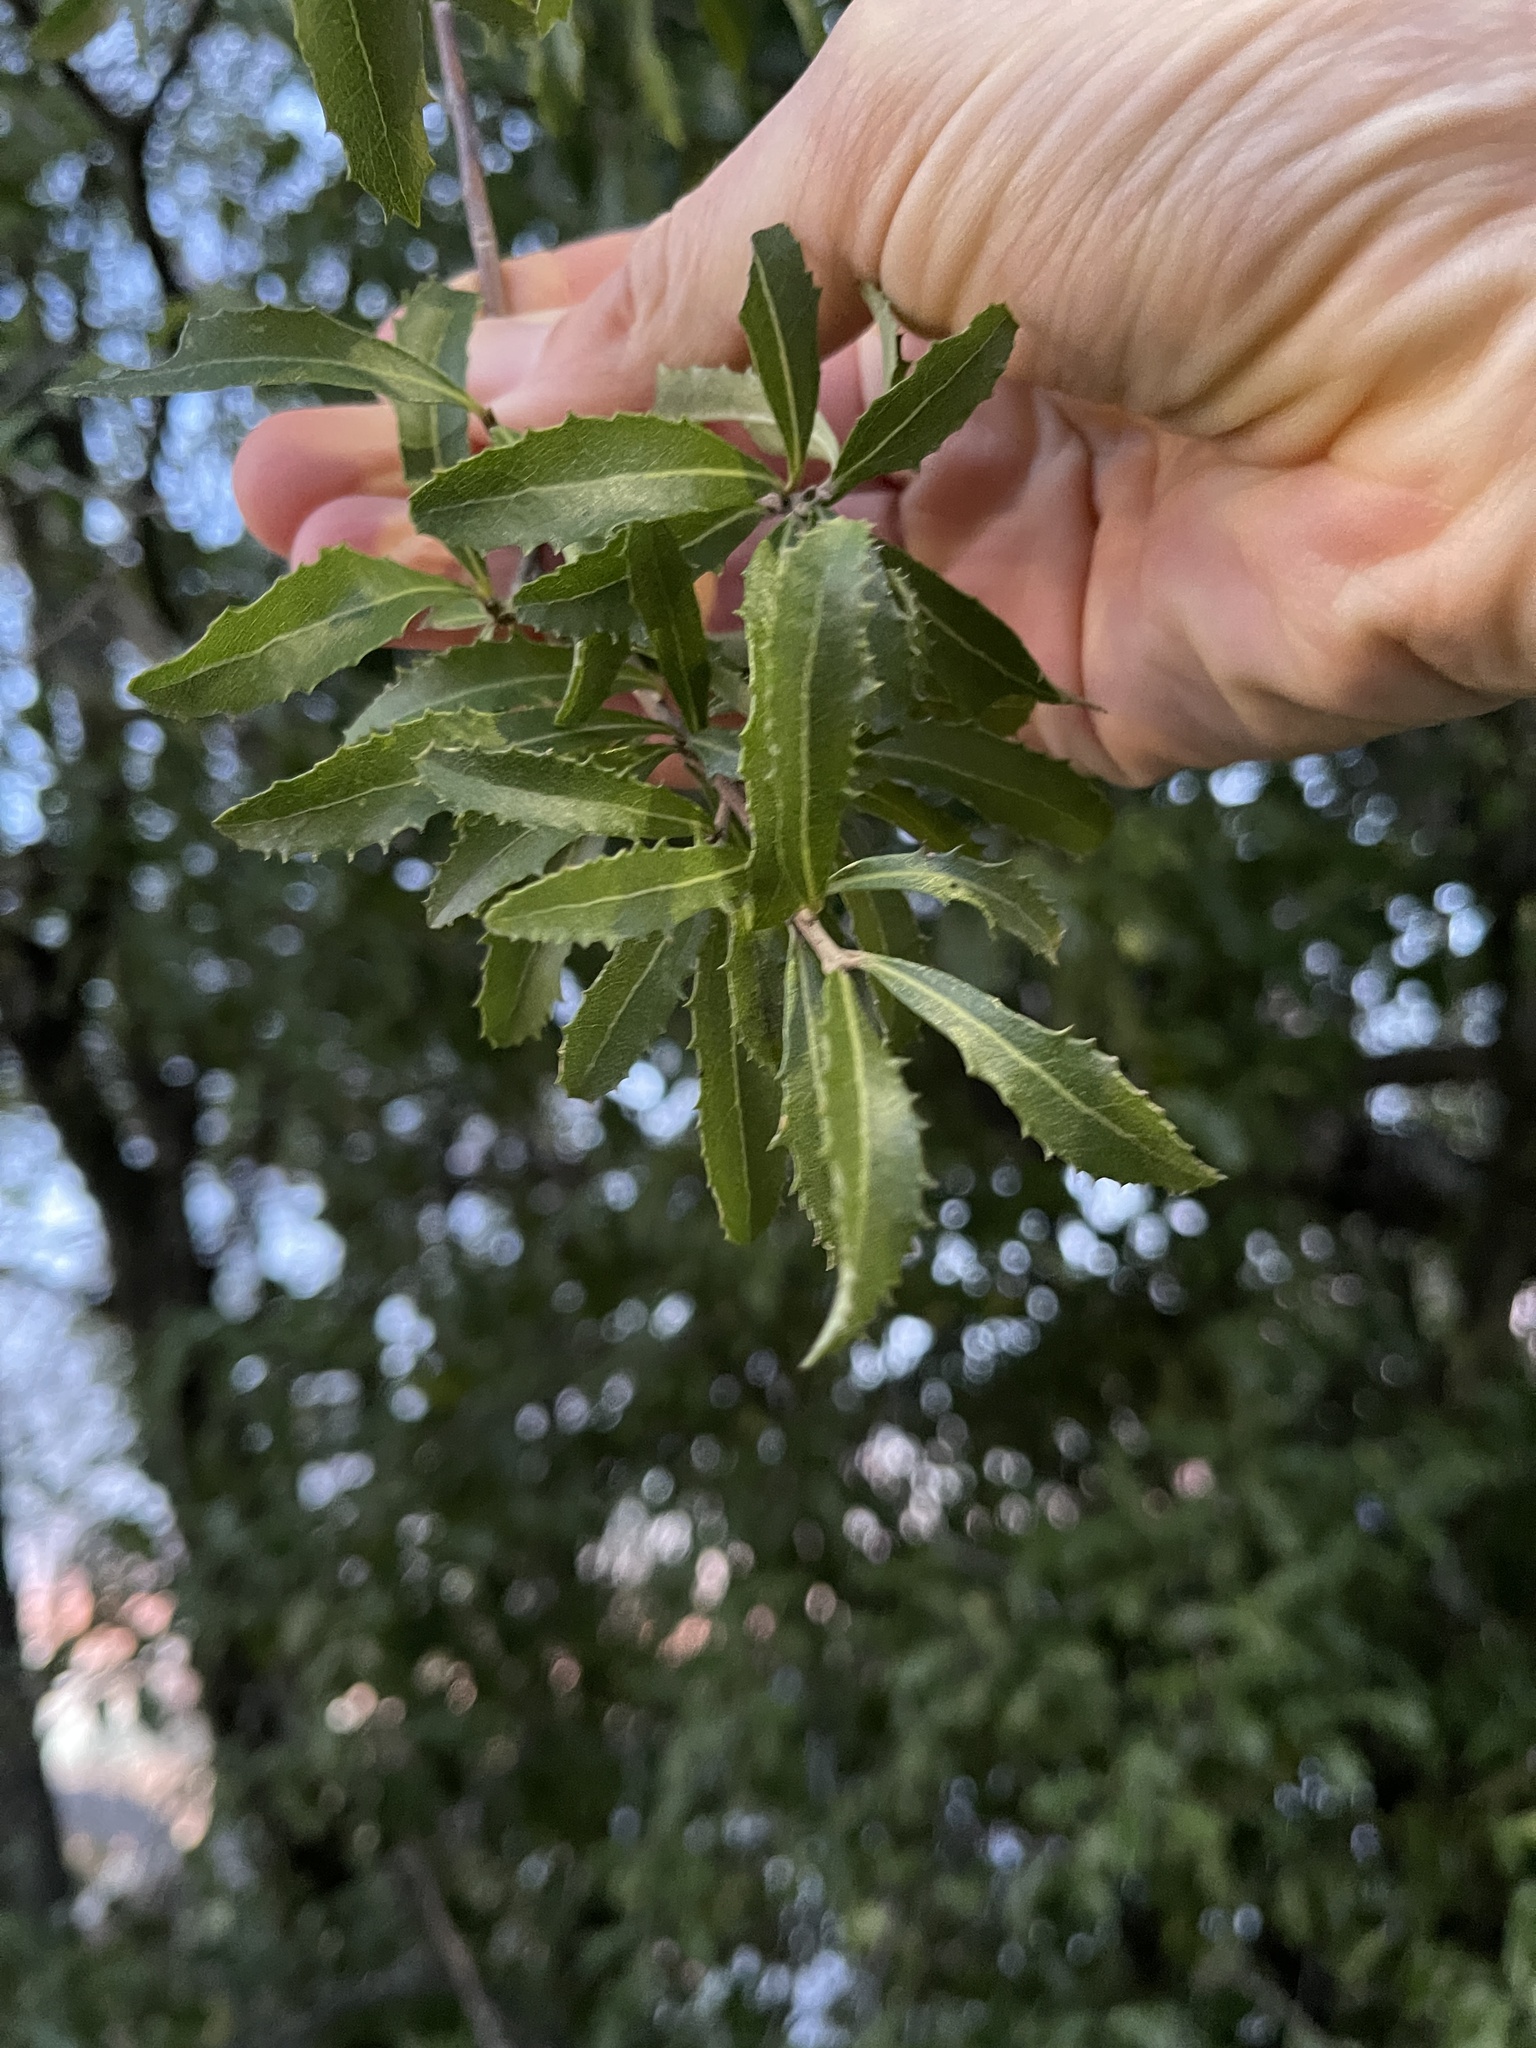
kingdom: Plantae
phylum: Tracheophyta
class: Magnoliopsida
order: Malvales
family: Malvaceae
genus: Hoheria
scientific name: Hoheria angustifolia
